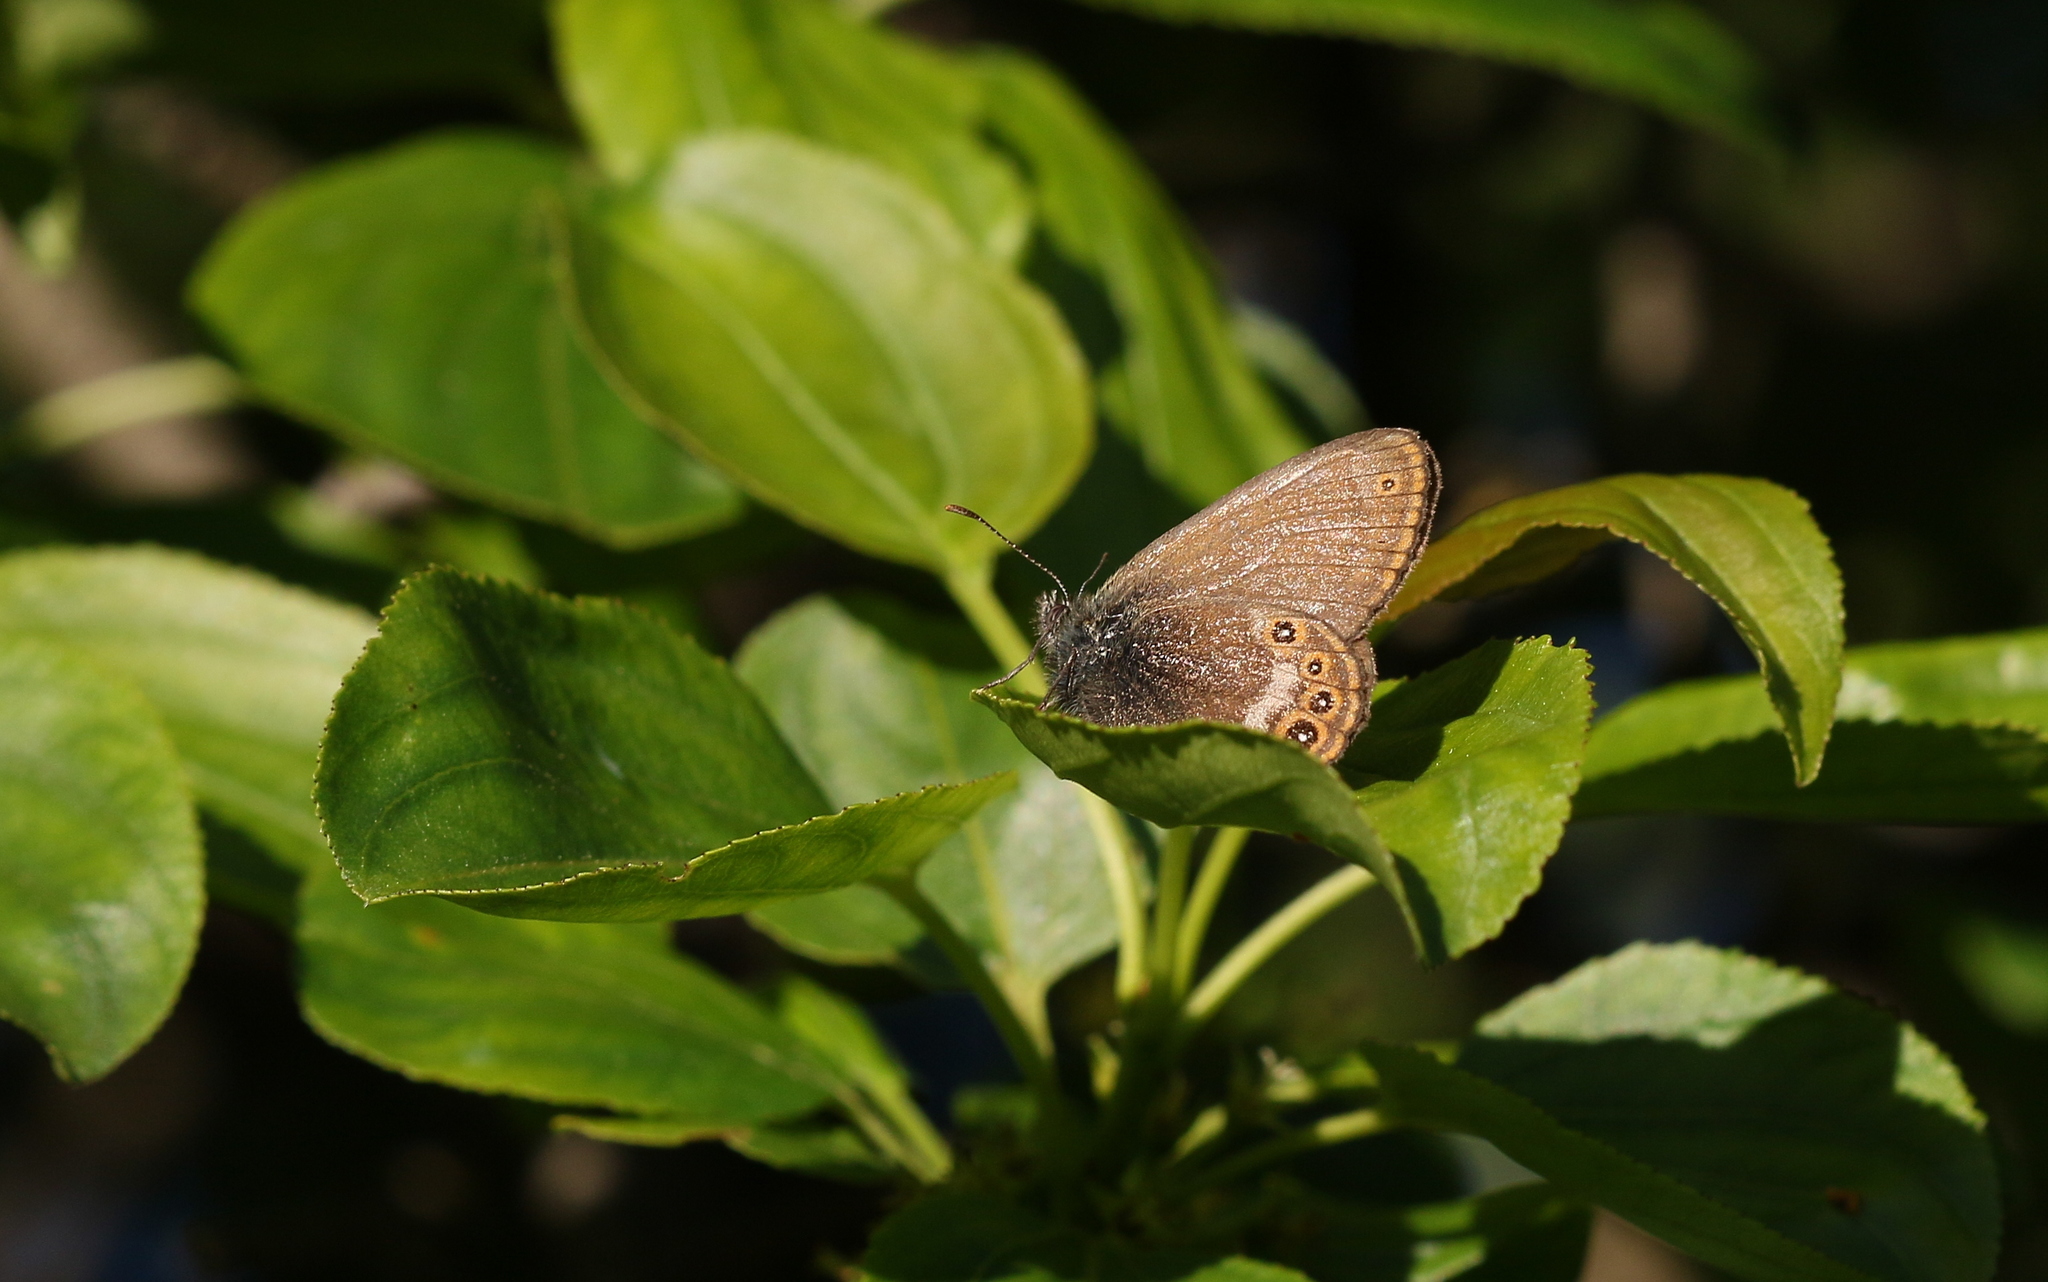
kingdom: Animalia
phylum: Arthropoda
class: Insecta
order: Lepidoptera
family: Nymphalidae
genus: Coenonympha
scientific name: Coenonympha hero
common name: Scarce heath
